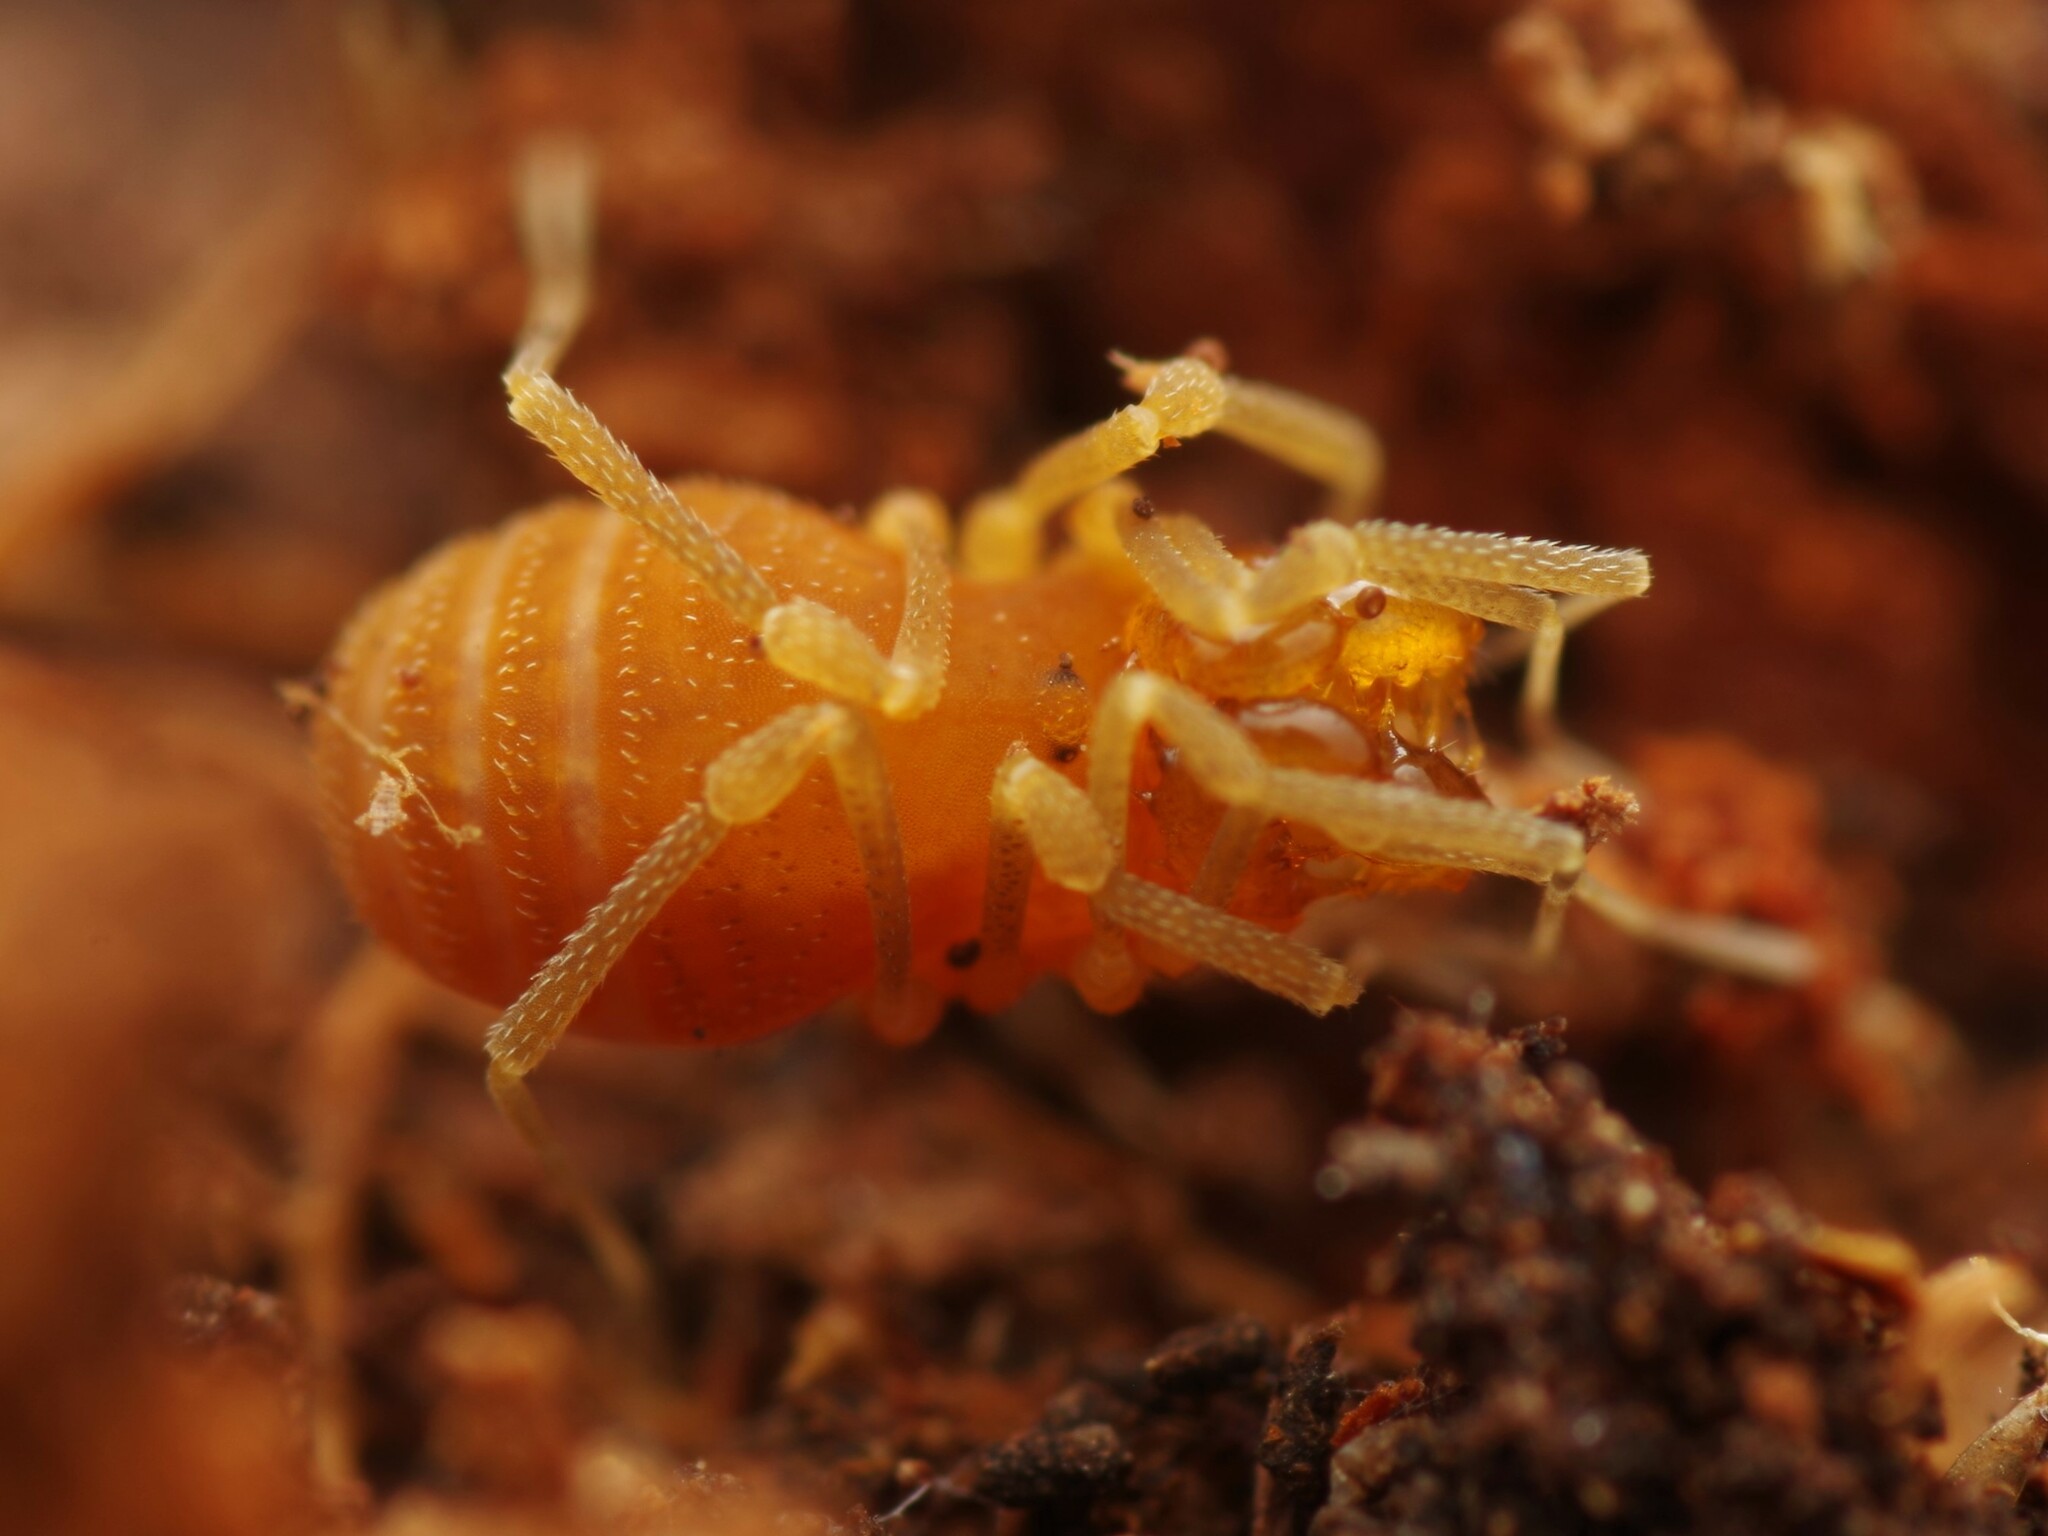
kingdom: Animalia
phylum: Arthropoda
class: Arachnida
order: Opiliones
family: Cladonychiidae
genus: Holoscotolemon
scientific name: Holoscotolemon querilhaci
